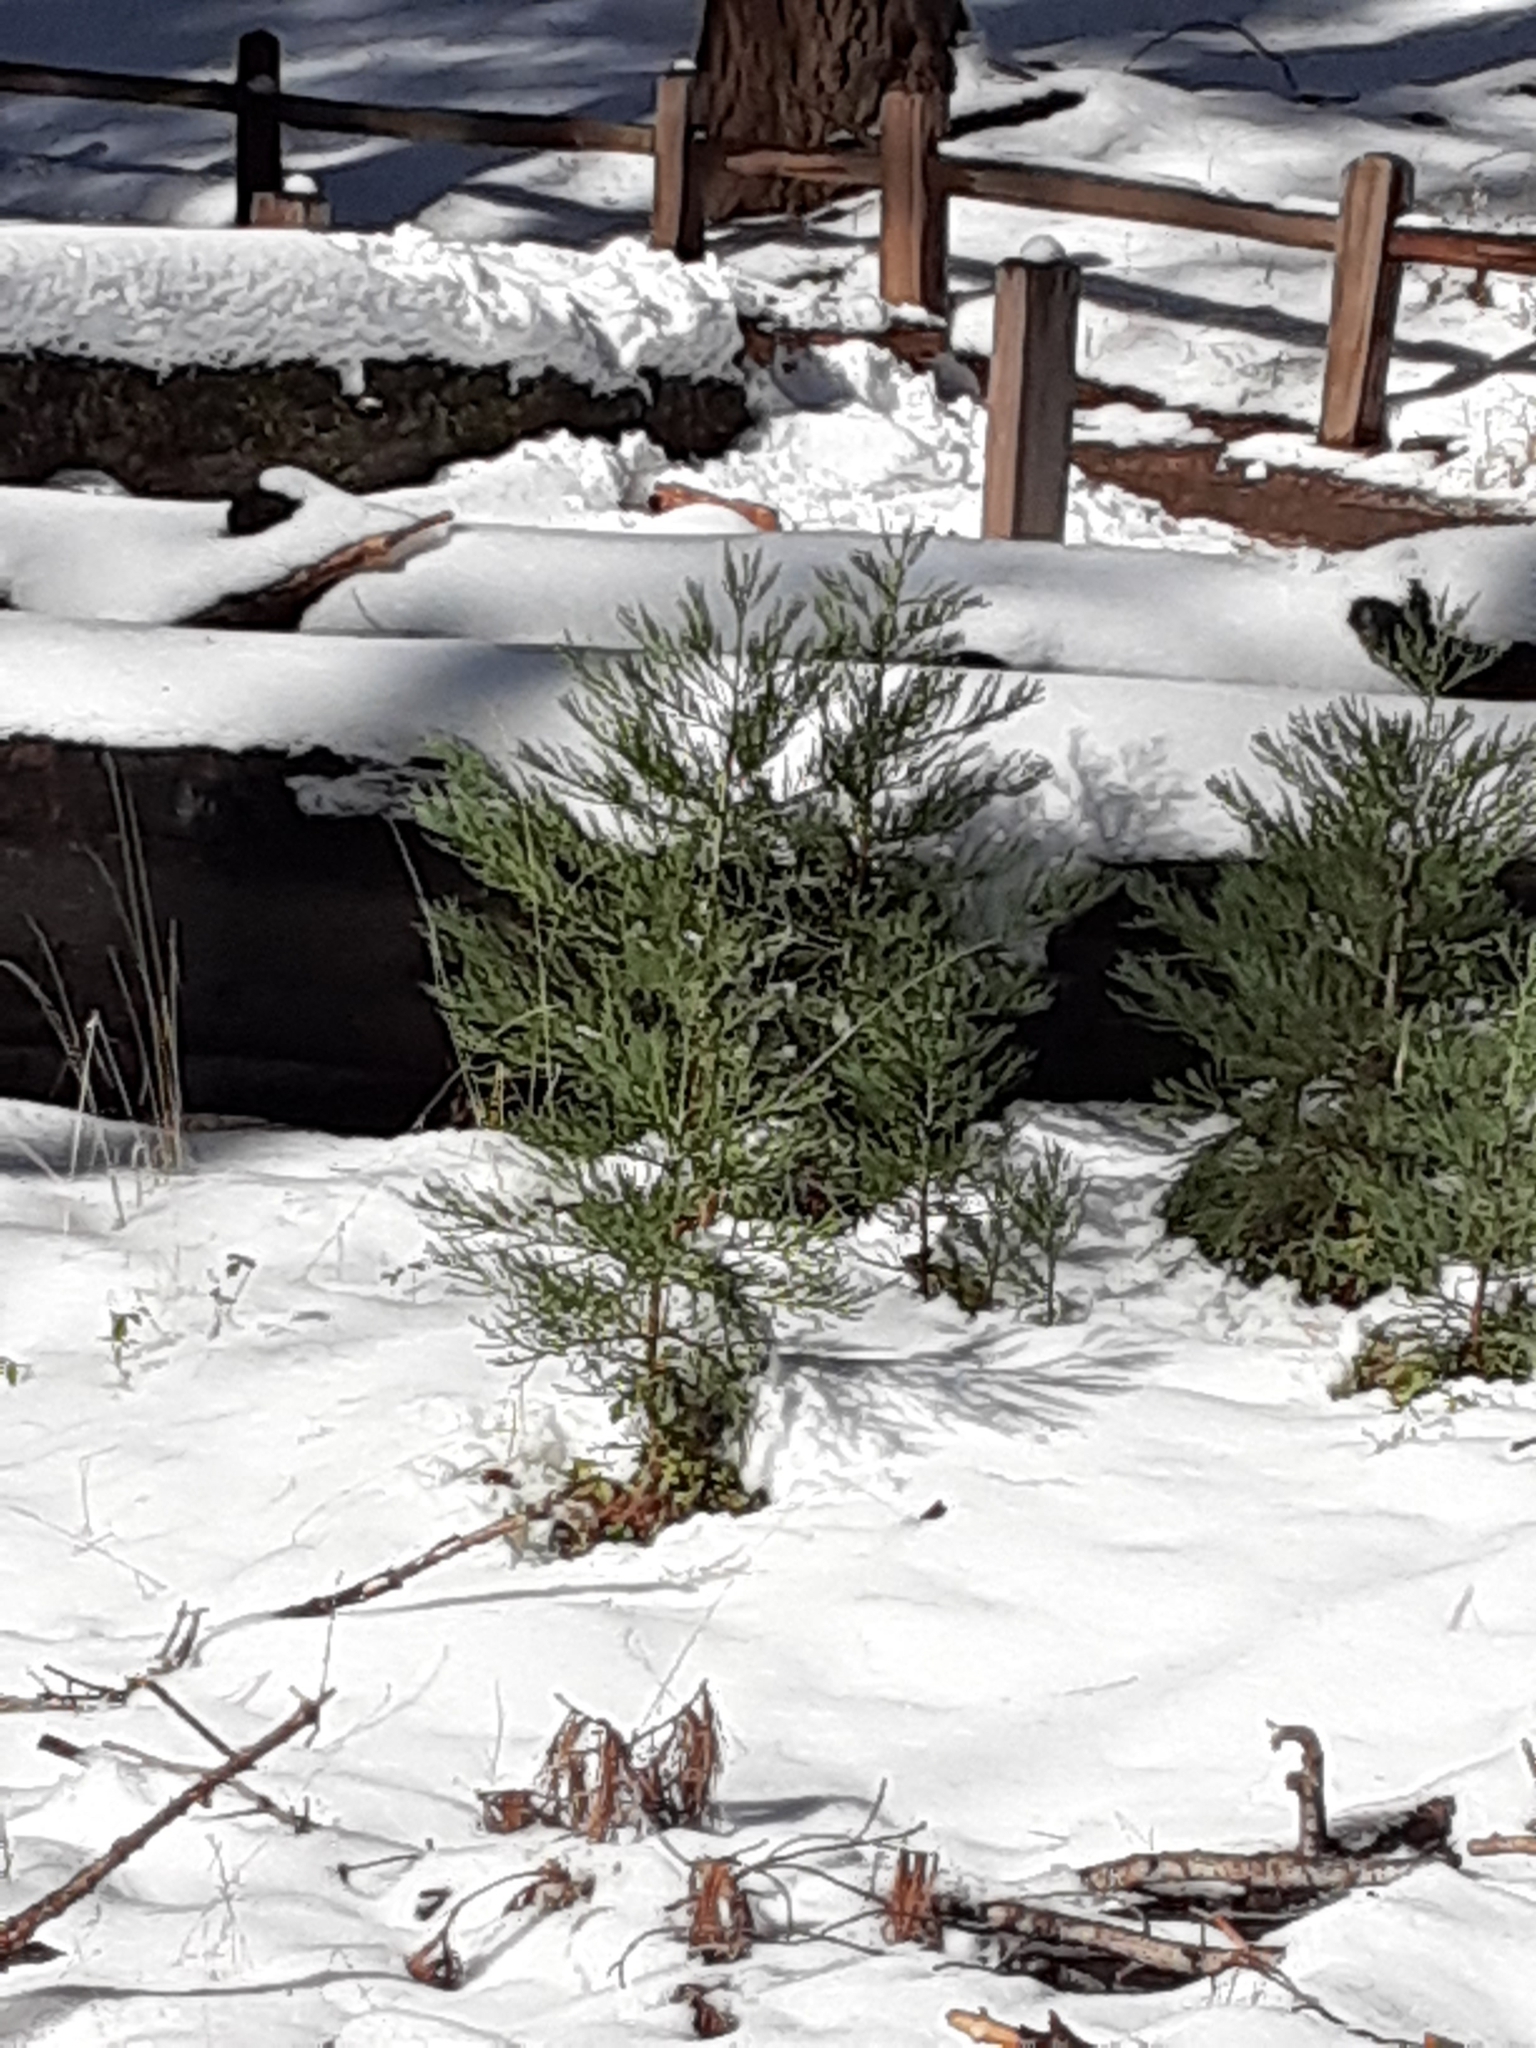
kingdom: Plantae
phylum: Tracheophyta
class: Pinopsida
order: Pinales
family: Cupressaceae
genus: Sequoiadendron
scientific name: Sequoiadendron giganteum
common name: Wellingtonia
